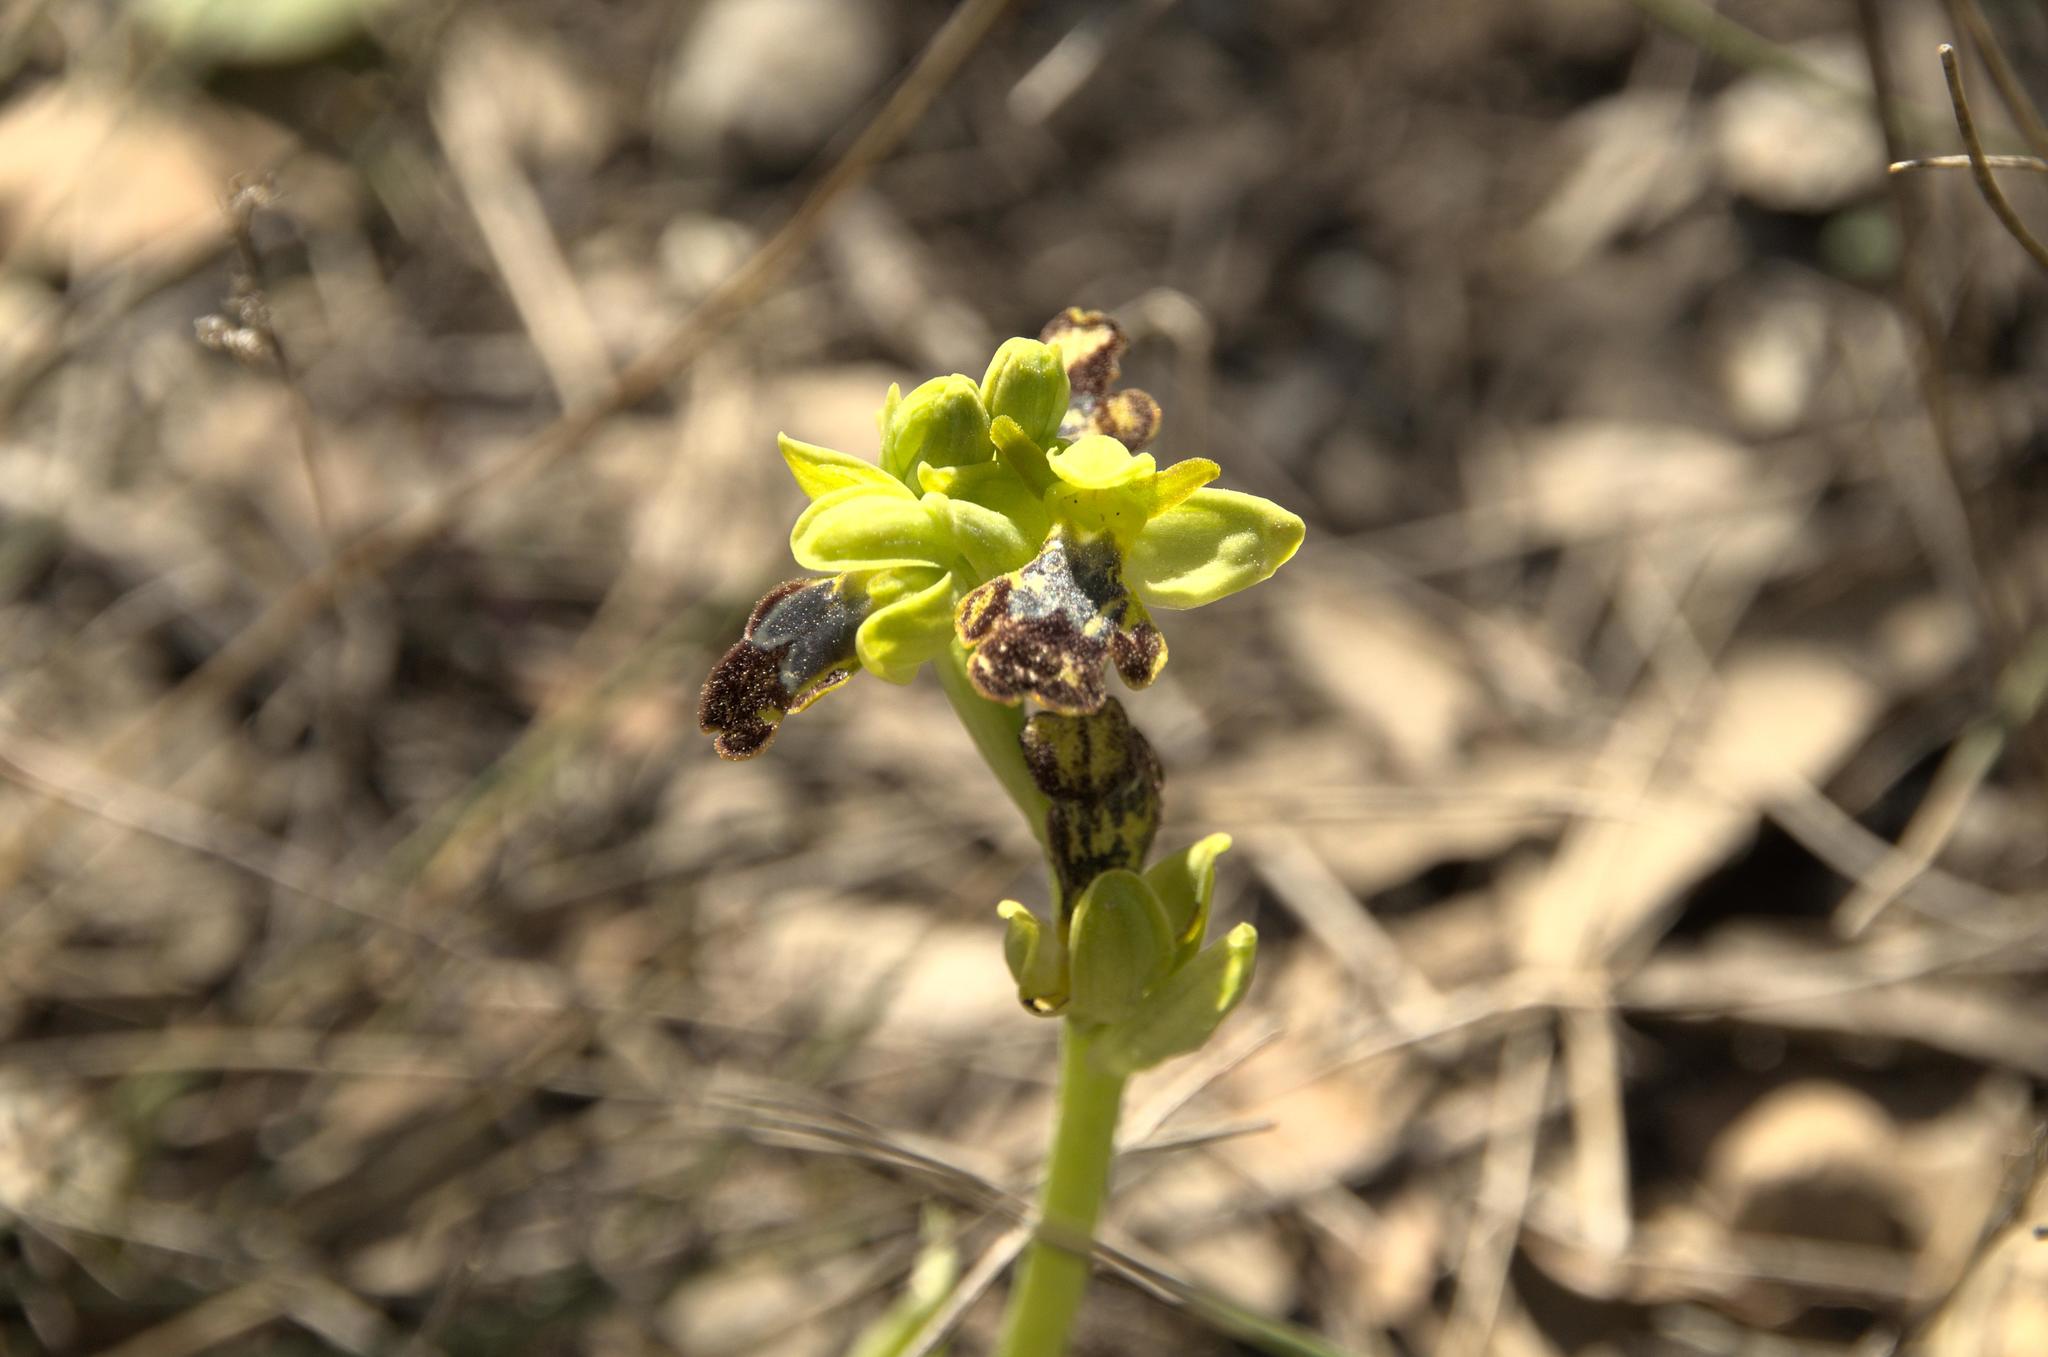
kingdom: Plantae
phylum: Tracheophyta
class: Liliopsida
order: Asparagales
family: Orchidaceae
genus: Ophrys
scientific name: Ophrys fusca
